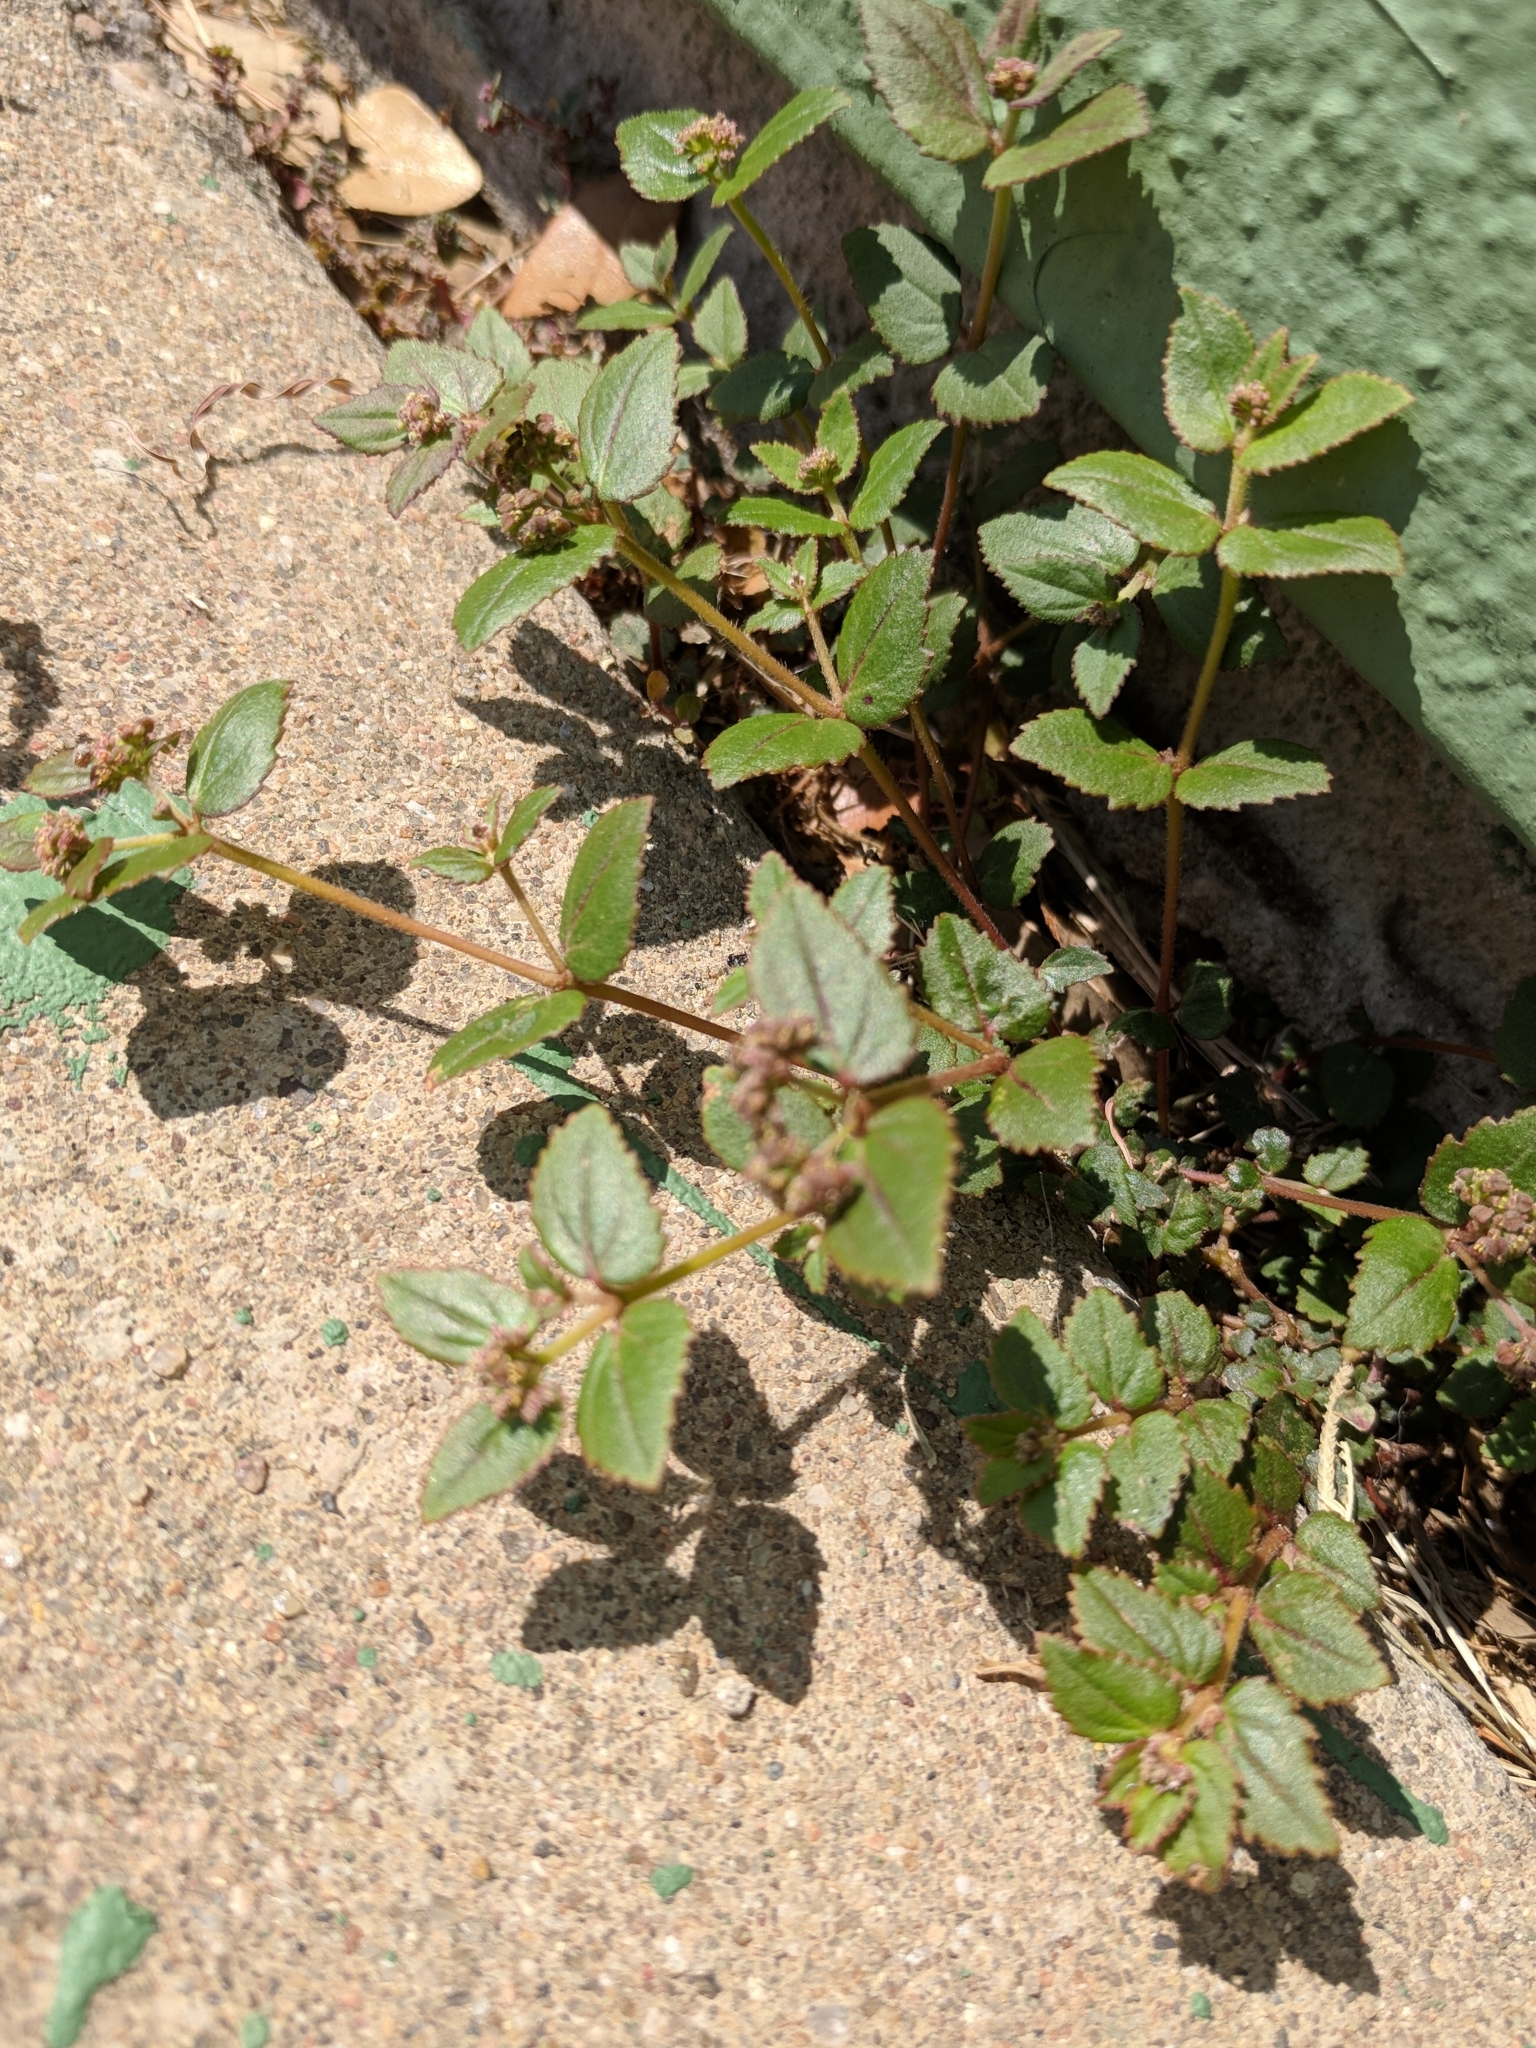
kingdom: Plantae
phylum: Tracheophyta
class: Magnoliopsida
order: Malpighiales
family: Euphorbiaceae
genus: Euphorbia
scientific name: Euphorbia ophthalmica
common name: Florida hammock sandmat
